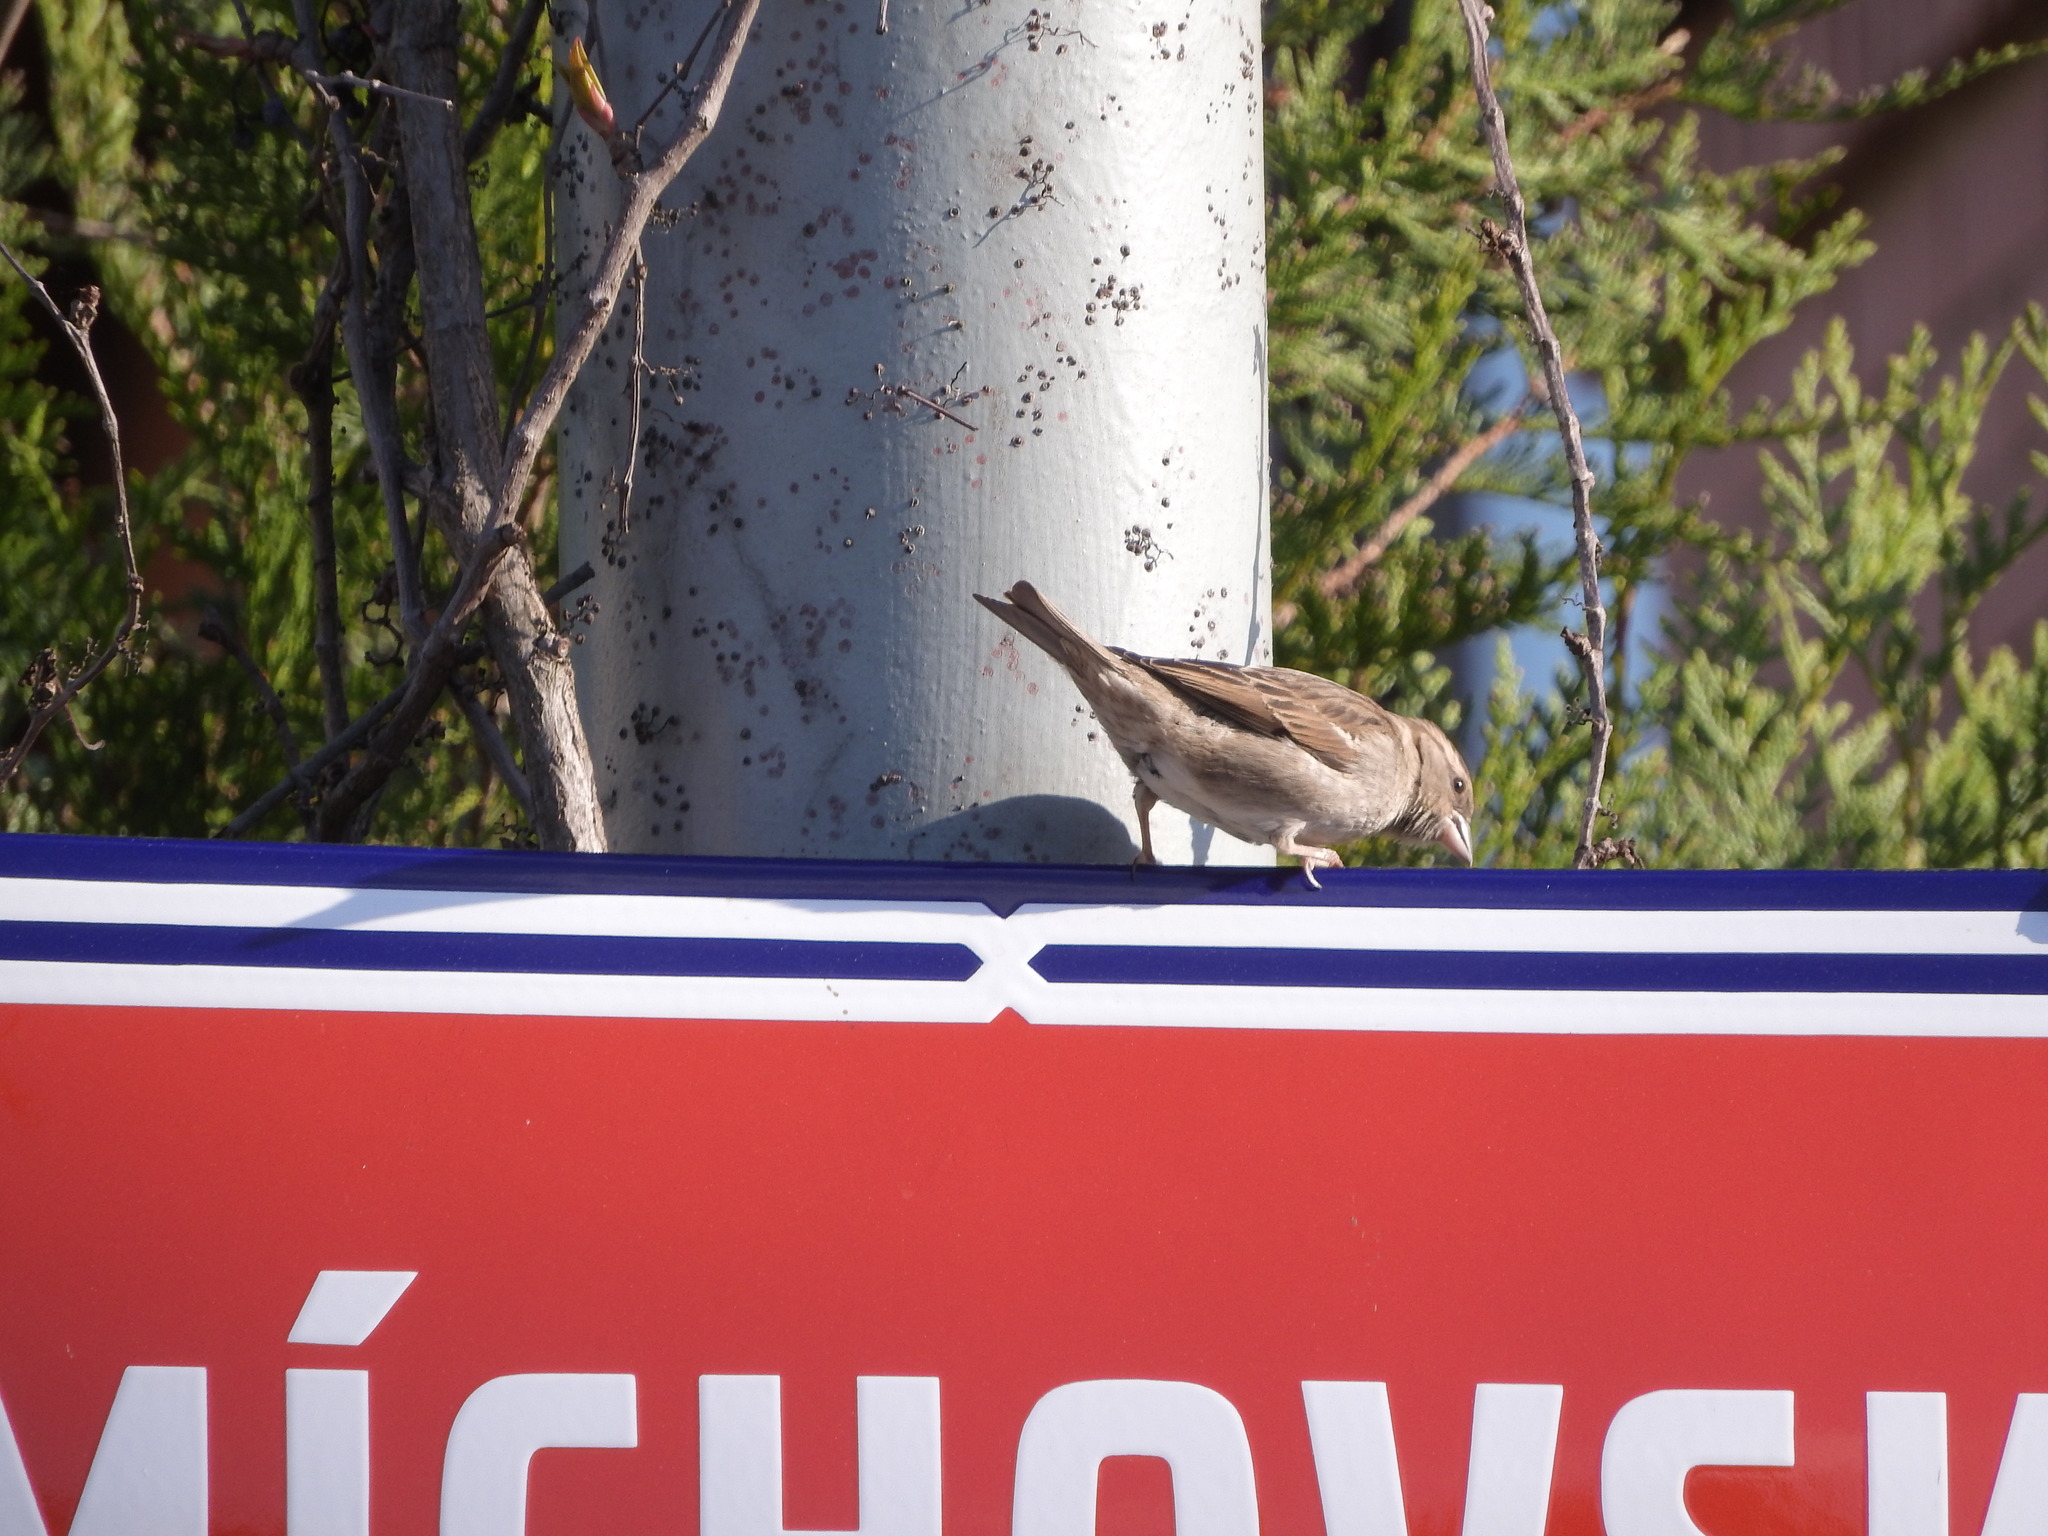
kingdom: Animalia
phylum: Chordata
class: Aves
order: Passeriformes
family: Passeridae
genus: Passer
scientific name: Passer domesticus
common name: House sparrow
